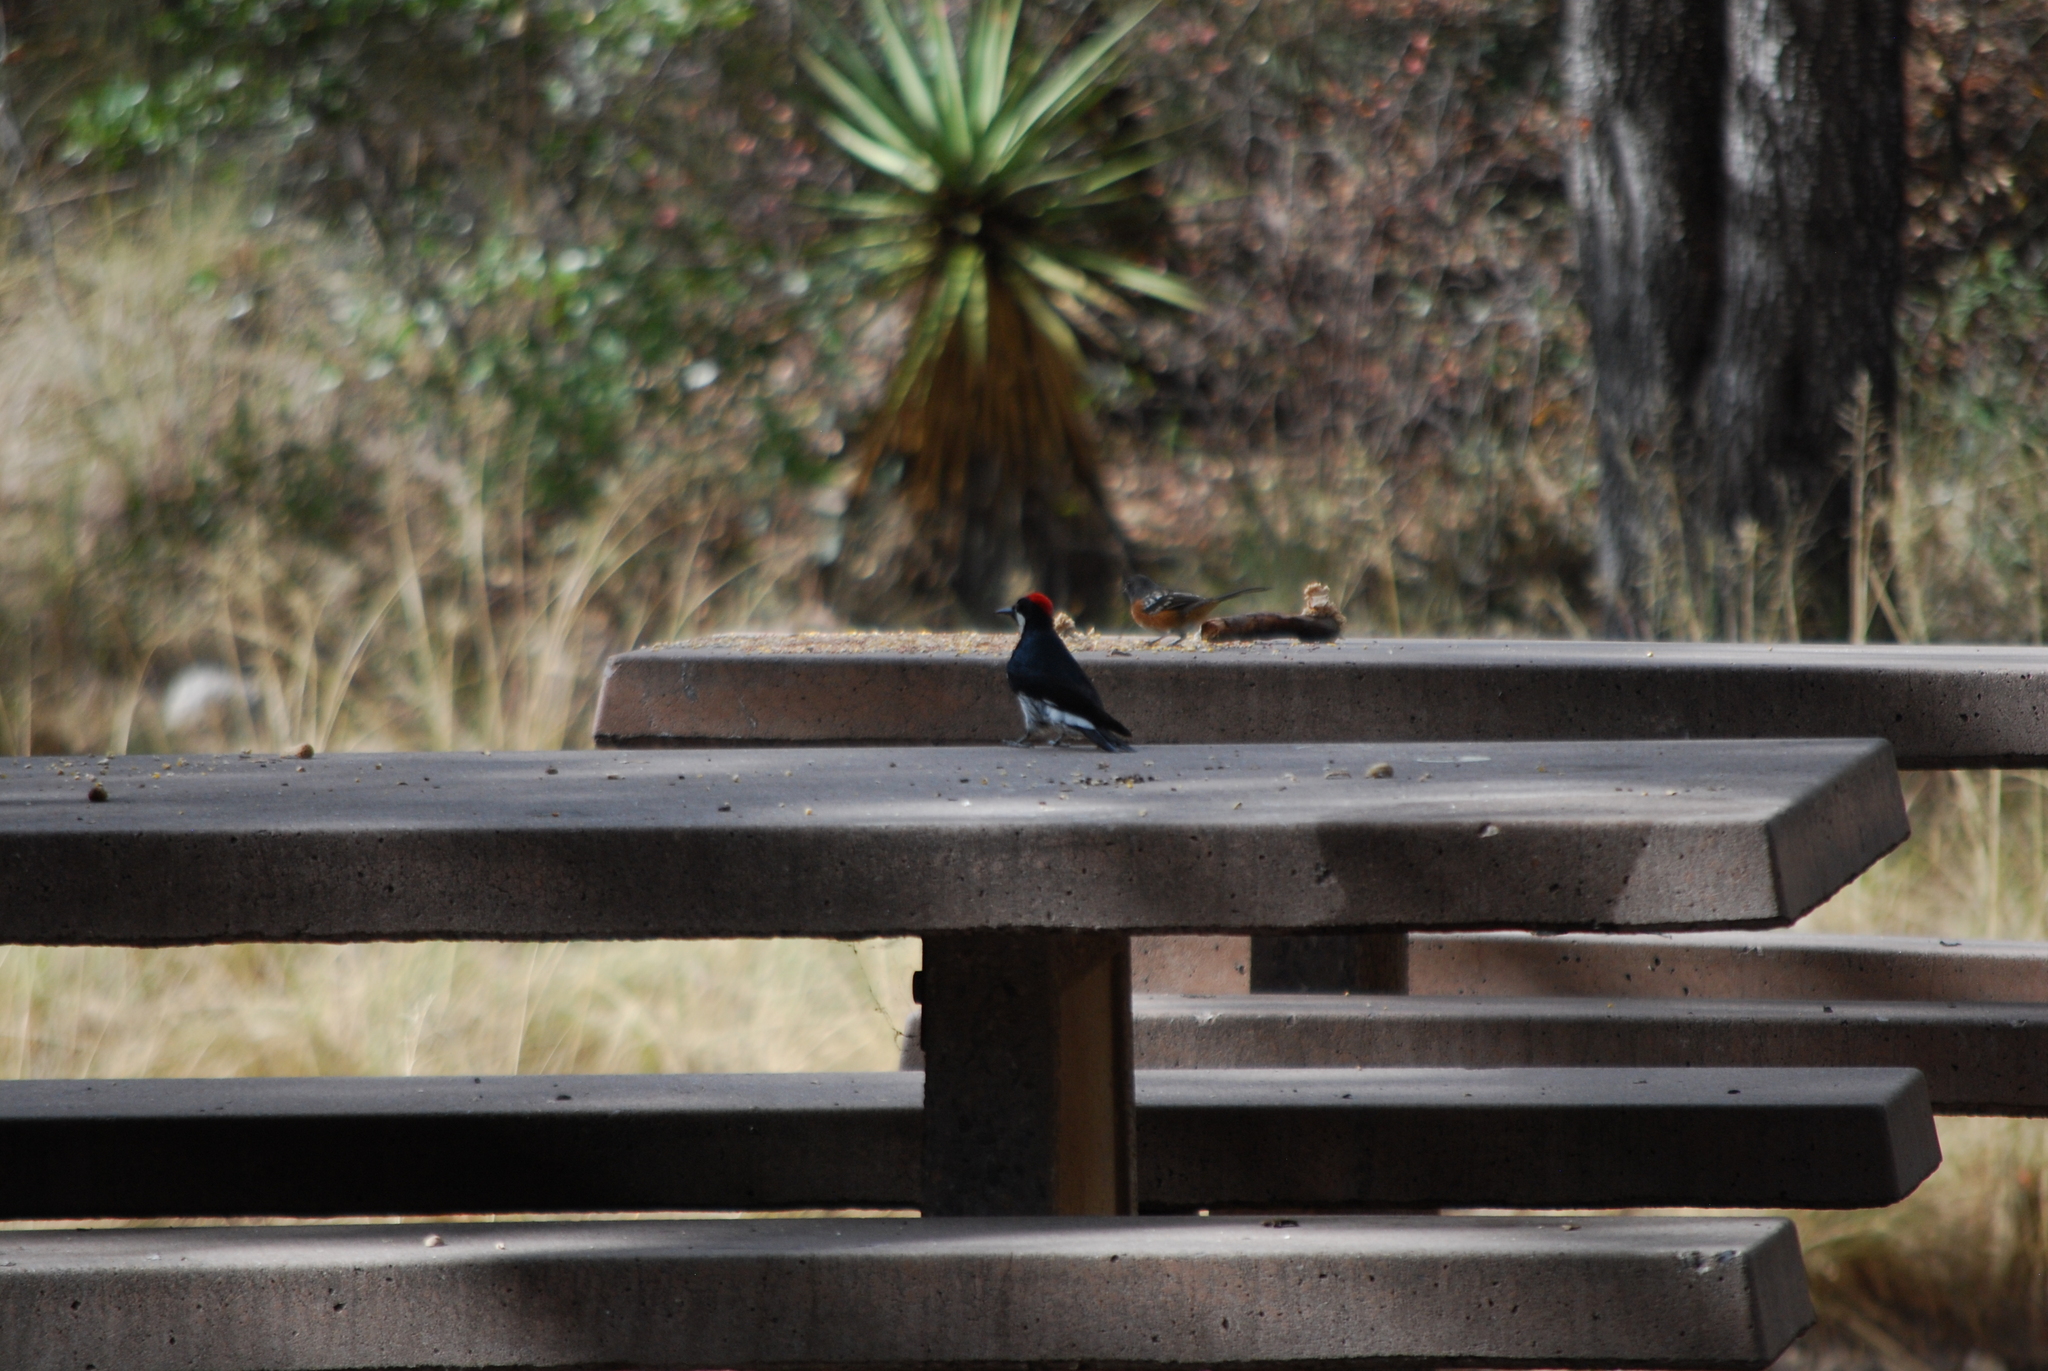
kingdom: Animalia
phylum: Chordata
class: Aves
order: Passeriformes
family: Passerellidae
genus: Pipilo
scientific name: Pipilo maculatus
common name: Spotted towhee
